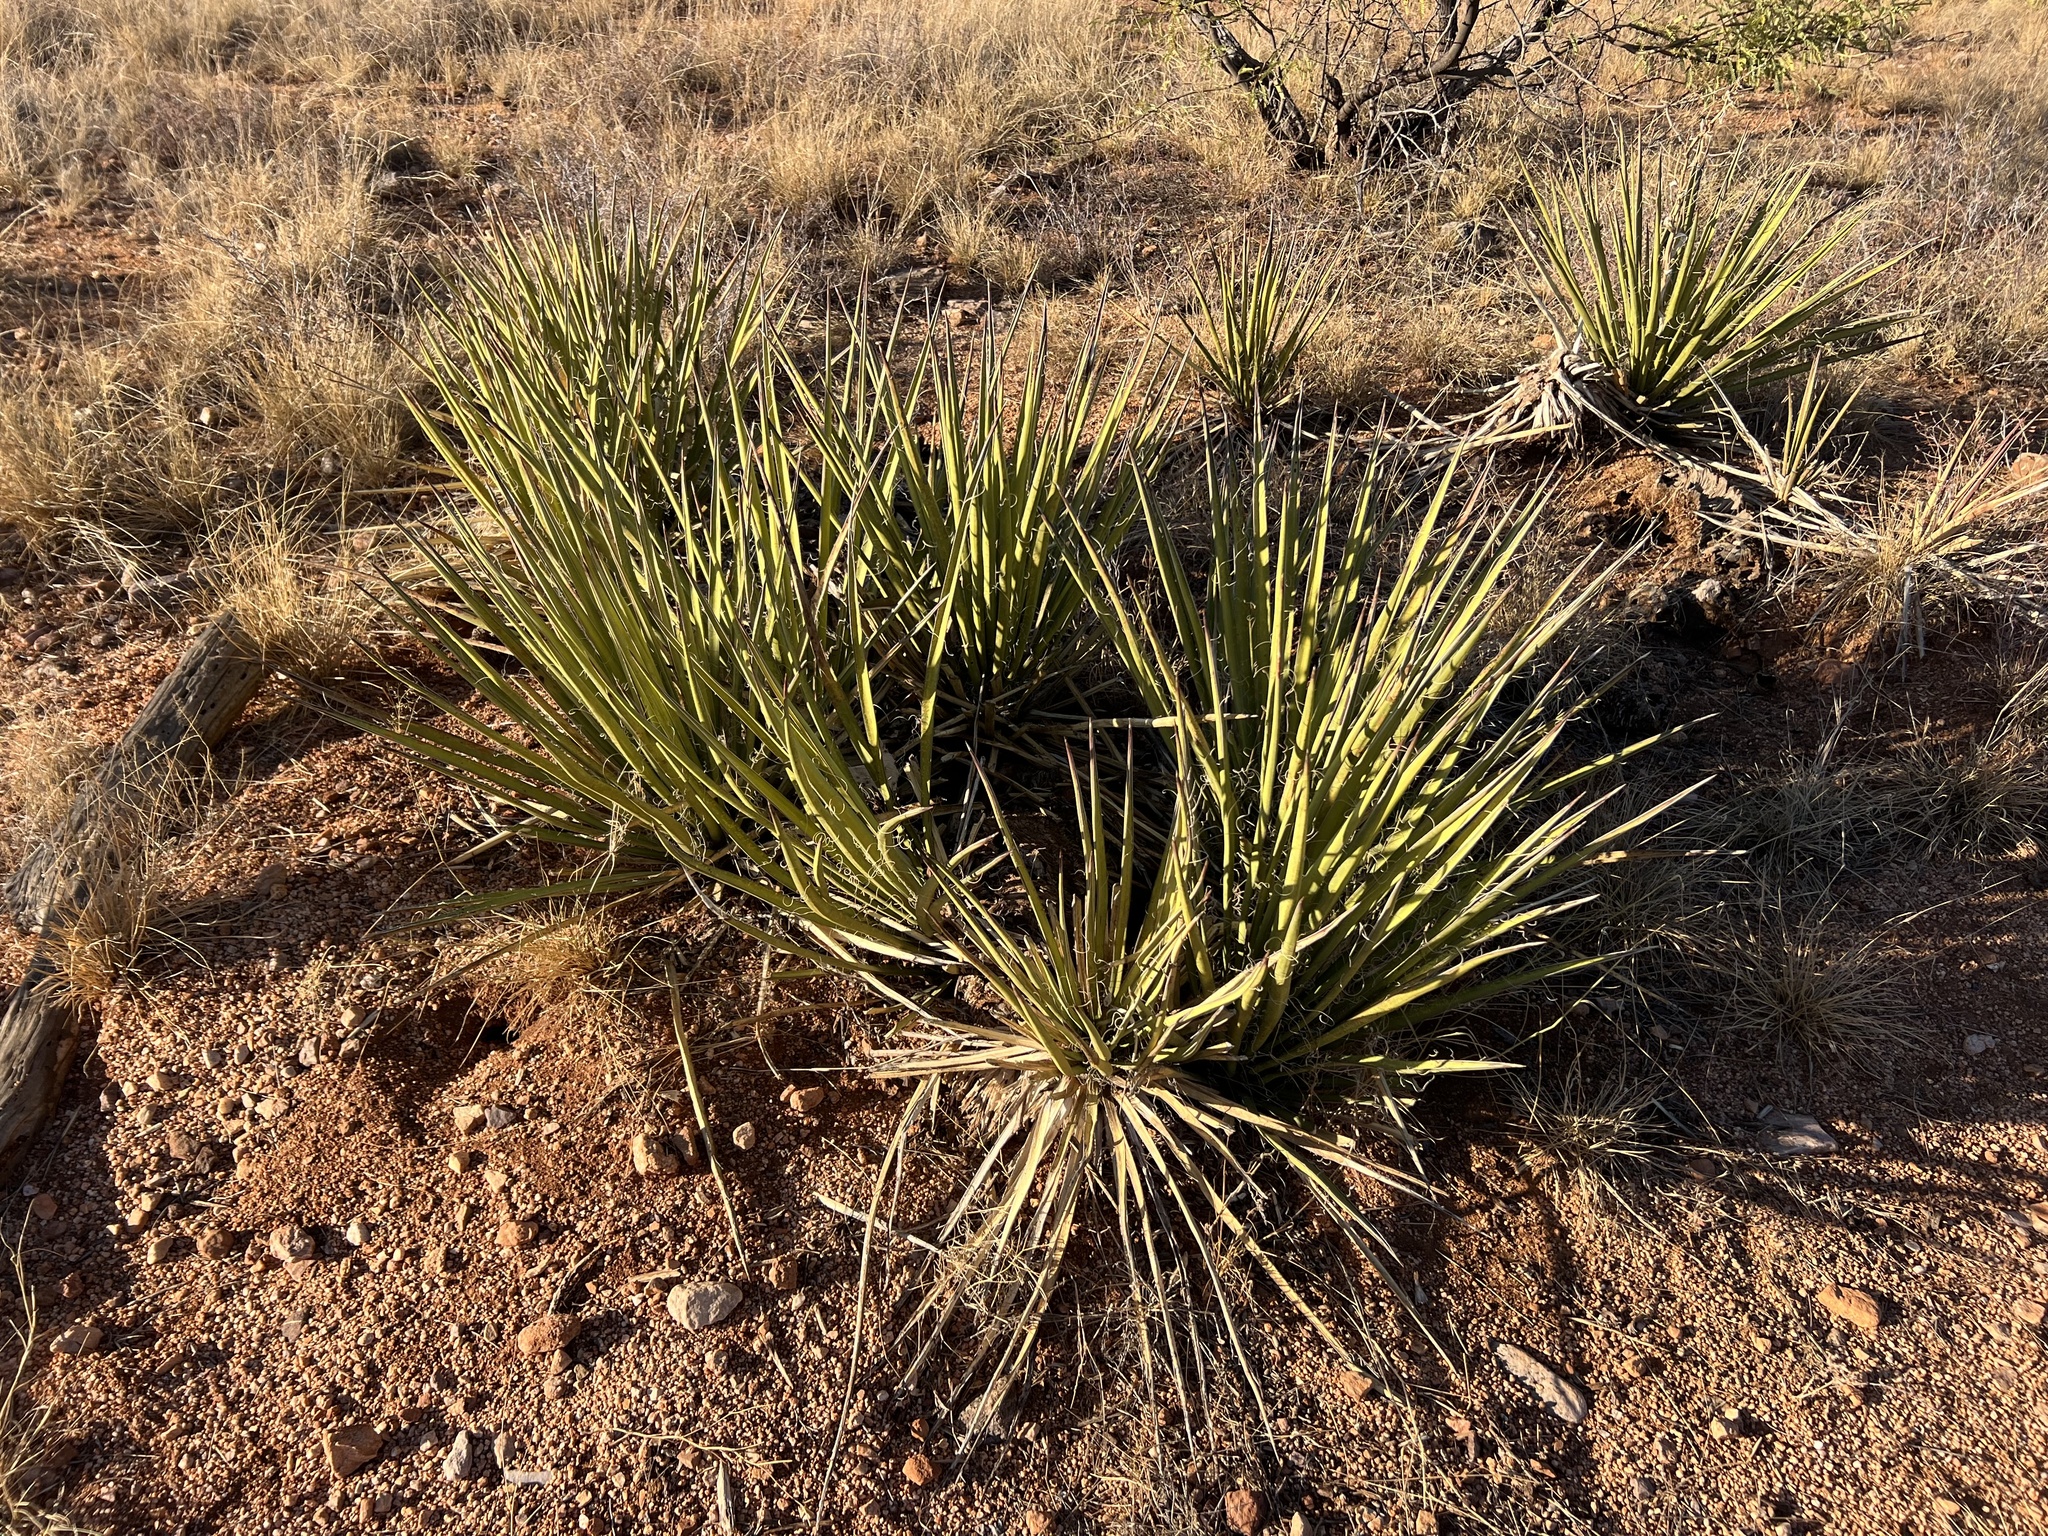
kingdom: Plantae
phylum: Tracheophyta
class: Liliopsida
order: Asparagales
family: Asparagaceae
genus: Yucca
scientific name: Yucca baccata
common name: Banana yucca
